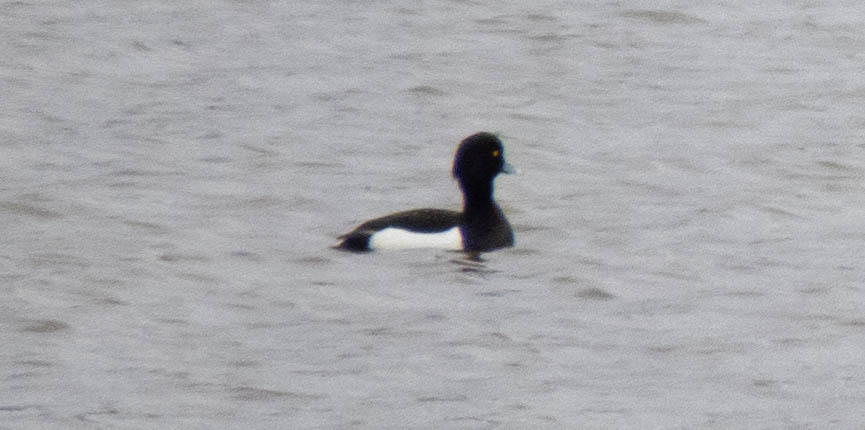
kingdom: Animalia
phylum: Chordata
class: Aves
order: Anseriformes
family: Anatidae
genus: Aythya
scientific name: Aythya fuligula
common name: Tufted duck
